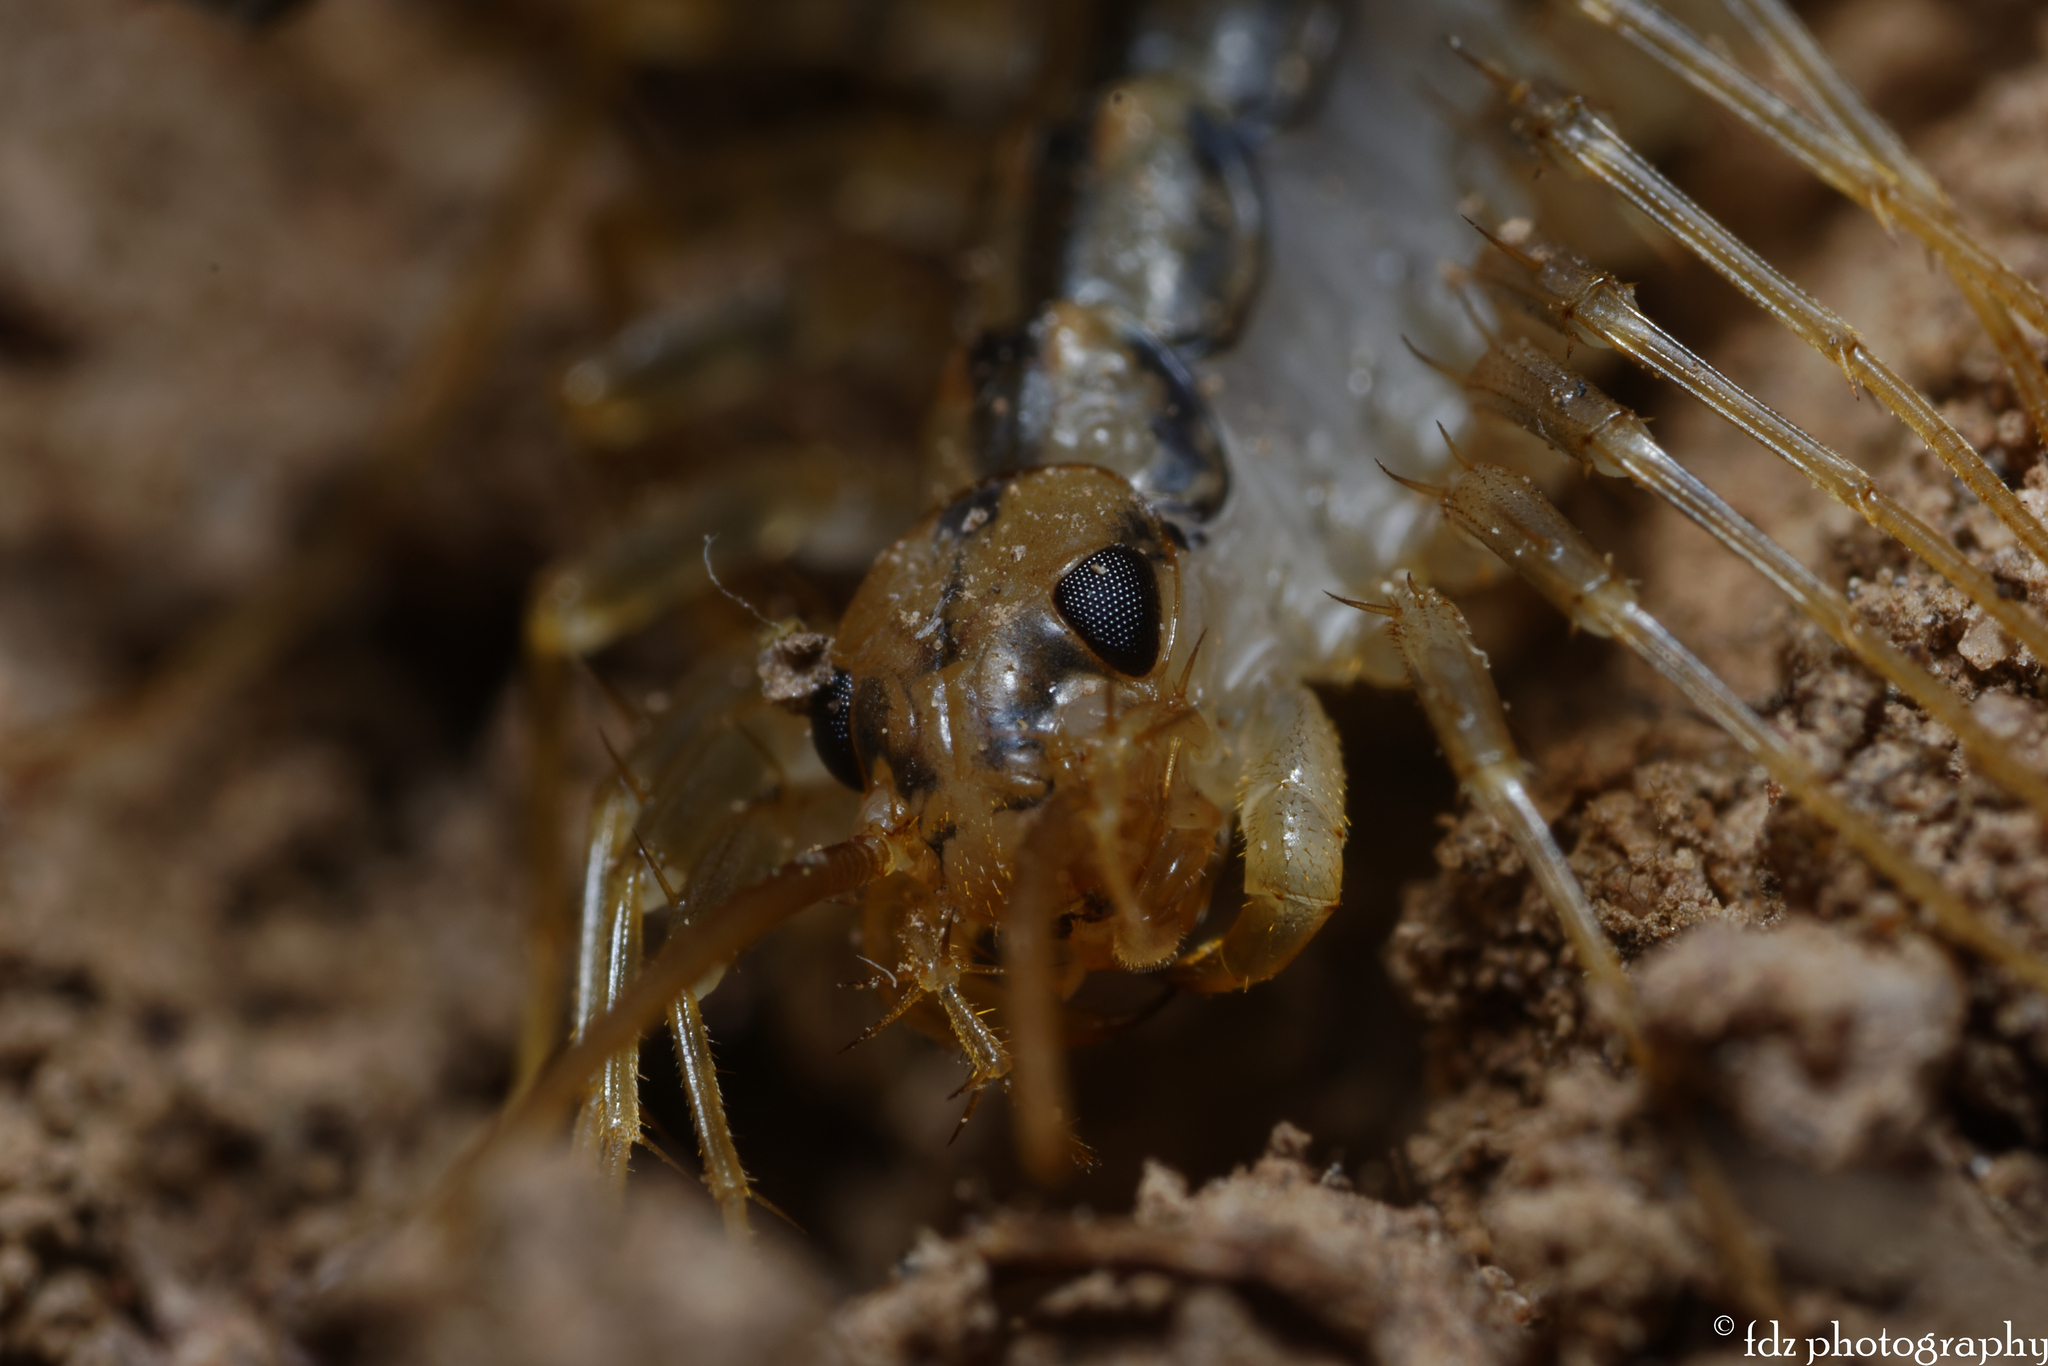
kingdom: Animalia
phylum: Arthropoda
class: Chilopoda
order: Scutigeromorpha
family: Scutigeridae
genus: Scutigera
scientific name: Scutigera coleoptrata
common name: House centipede
